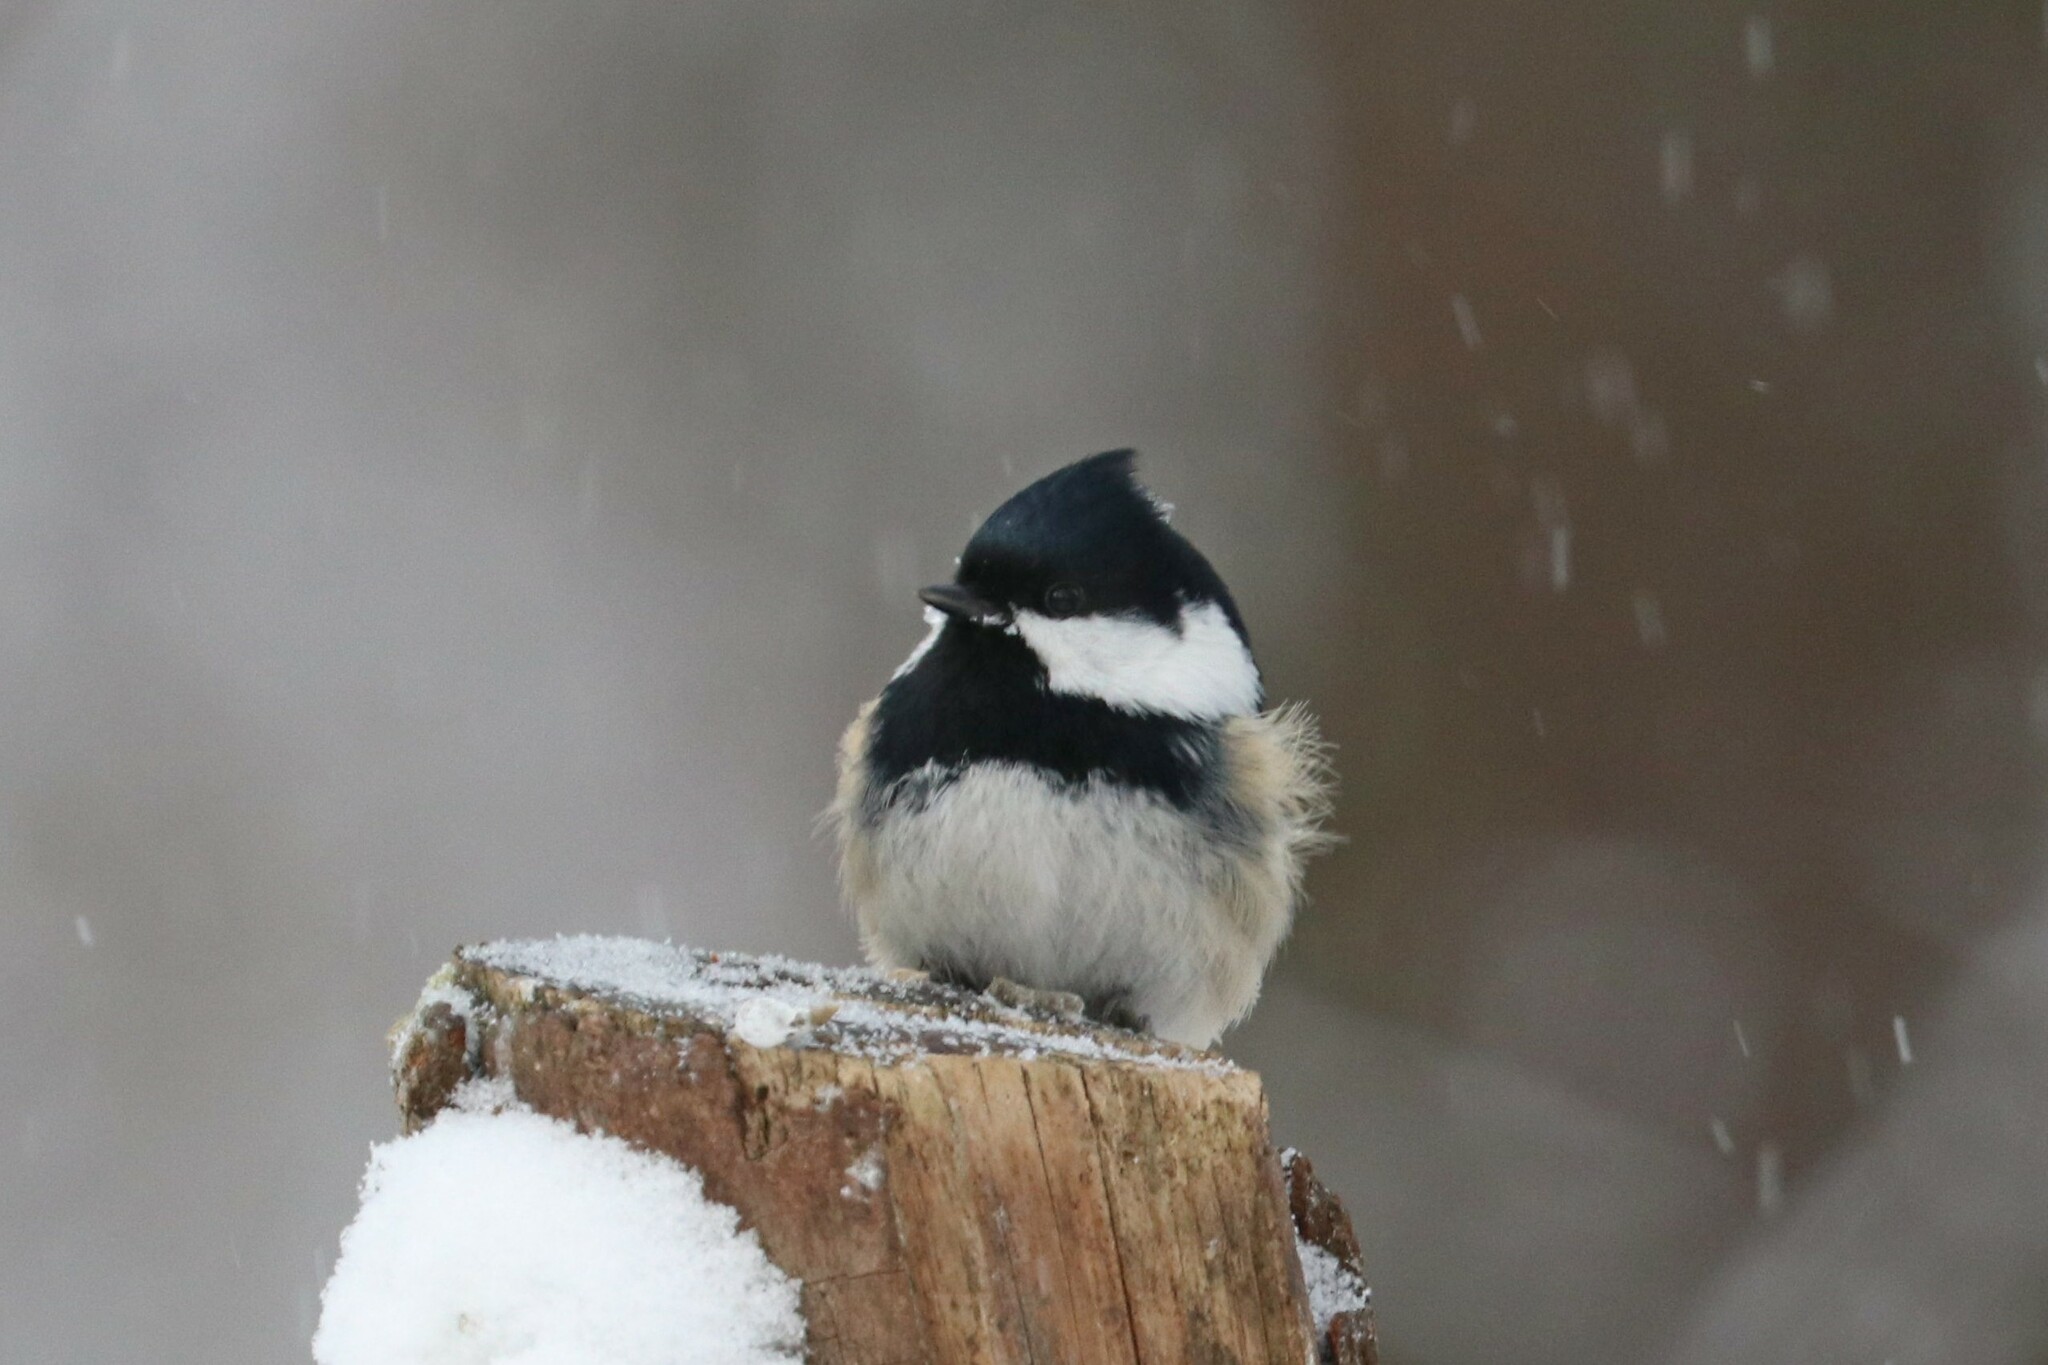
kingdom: Animalia
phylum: Chordata
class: Aves
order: Passeriformes
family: Paridae
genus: Periparus
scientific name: Periparus ater
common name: Coal tit
